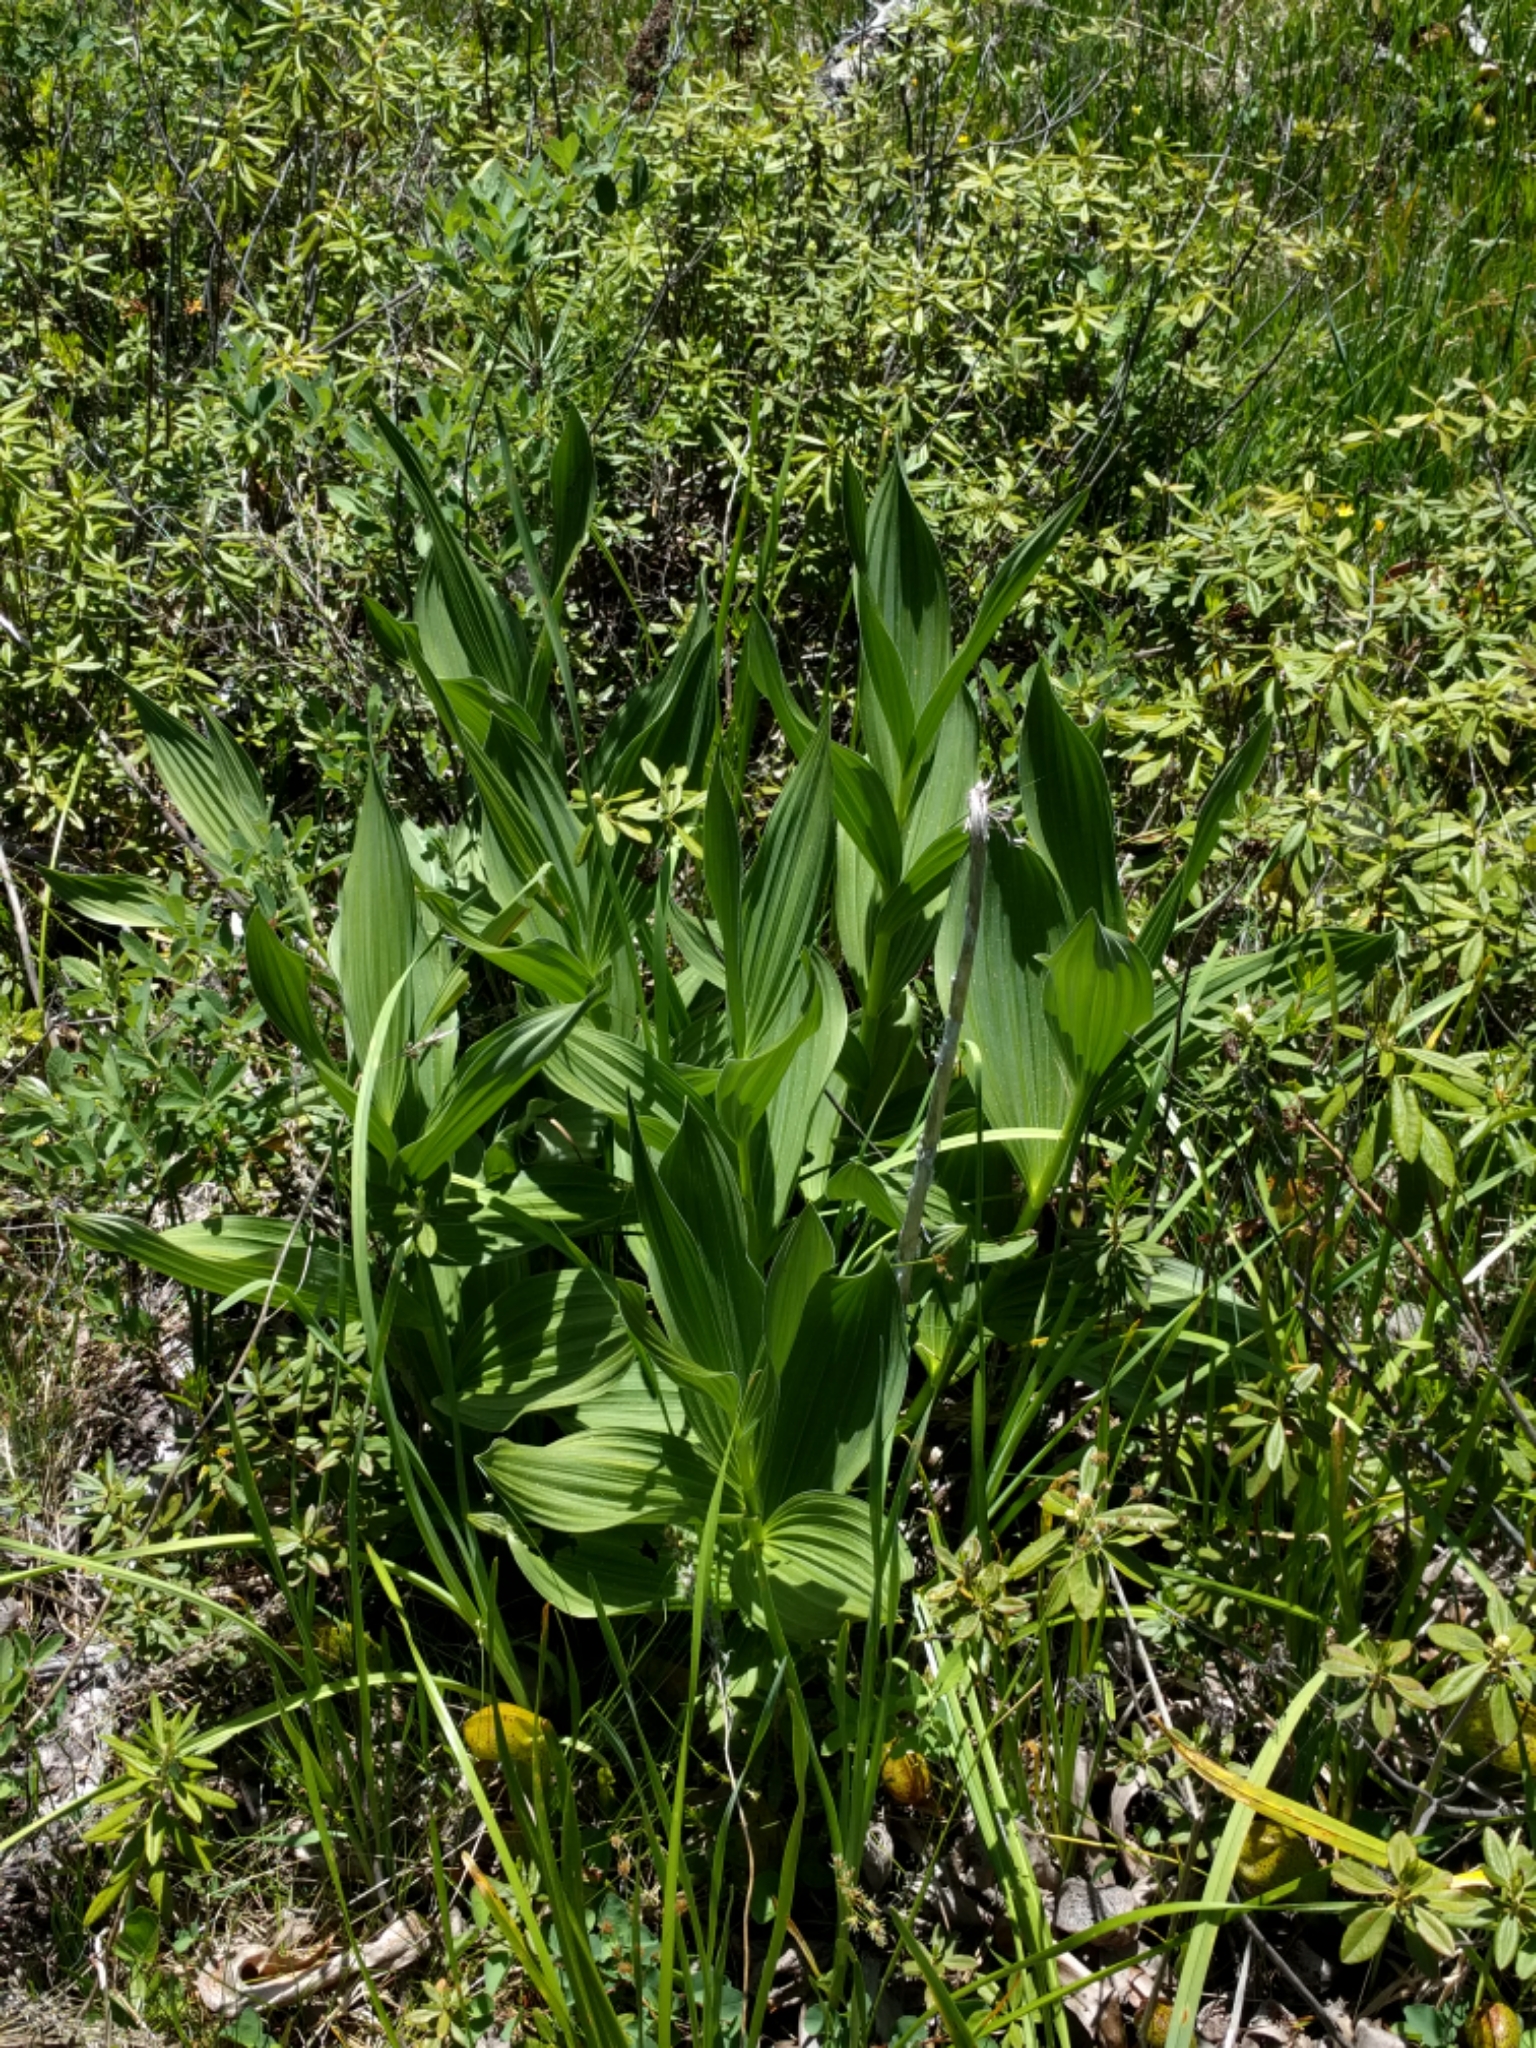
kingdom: Plantae
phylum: Tracheophyta
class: Liliopsida
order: Liliales
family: Melanthiaceae
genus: Veratrum
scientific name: Veratrum californicum
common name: California veratrum
